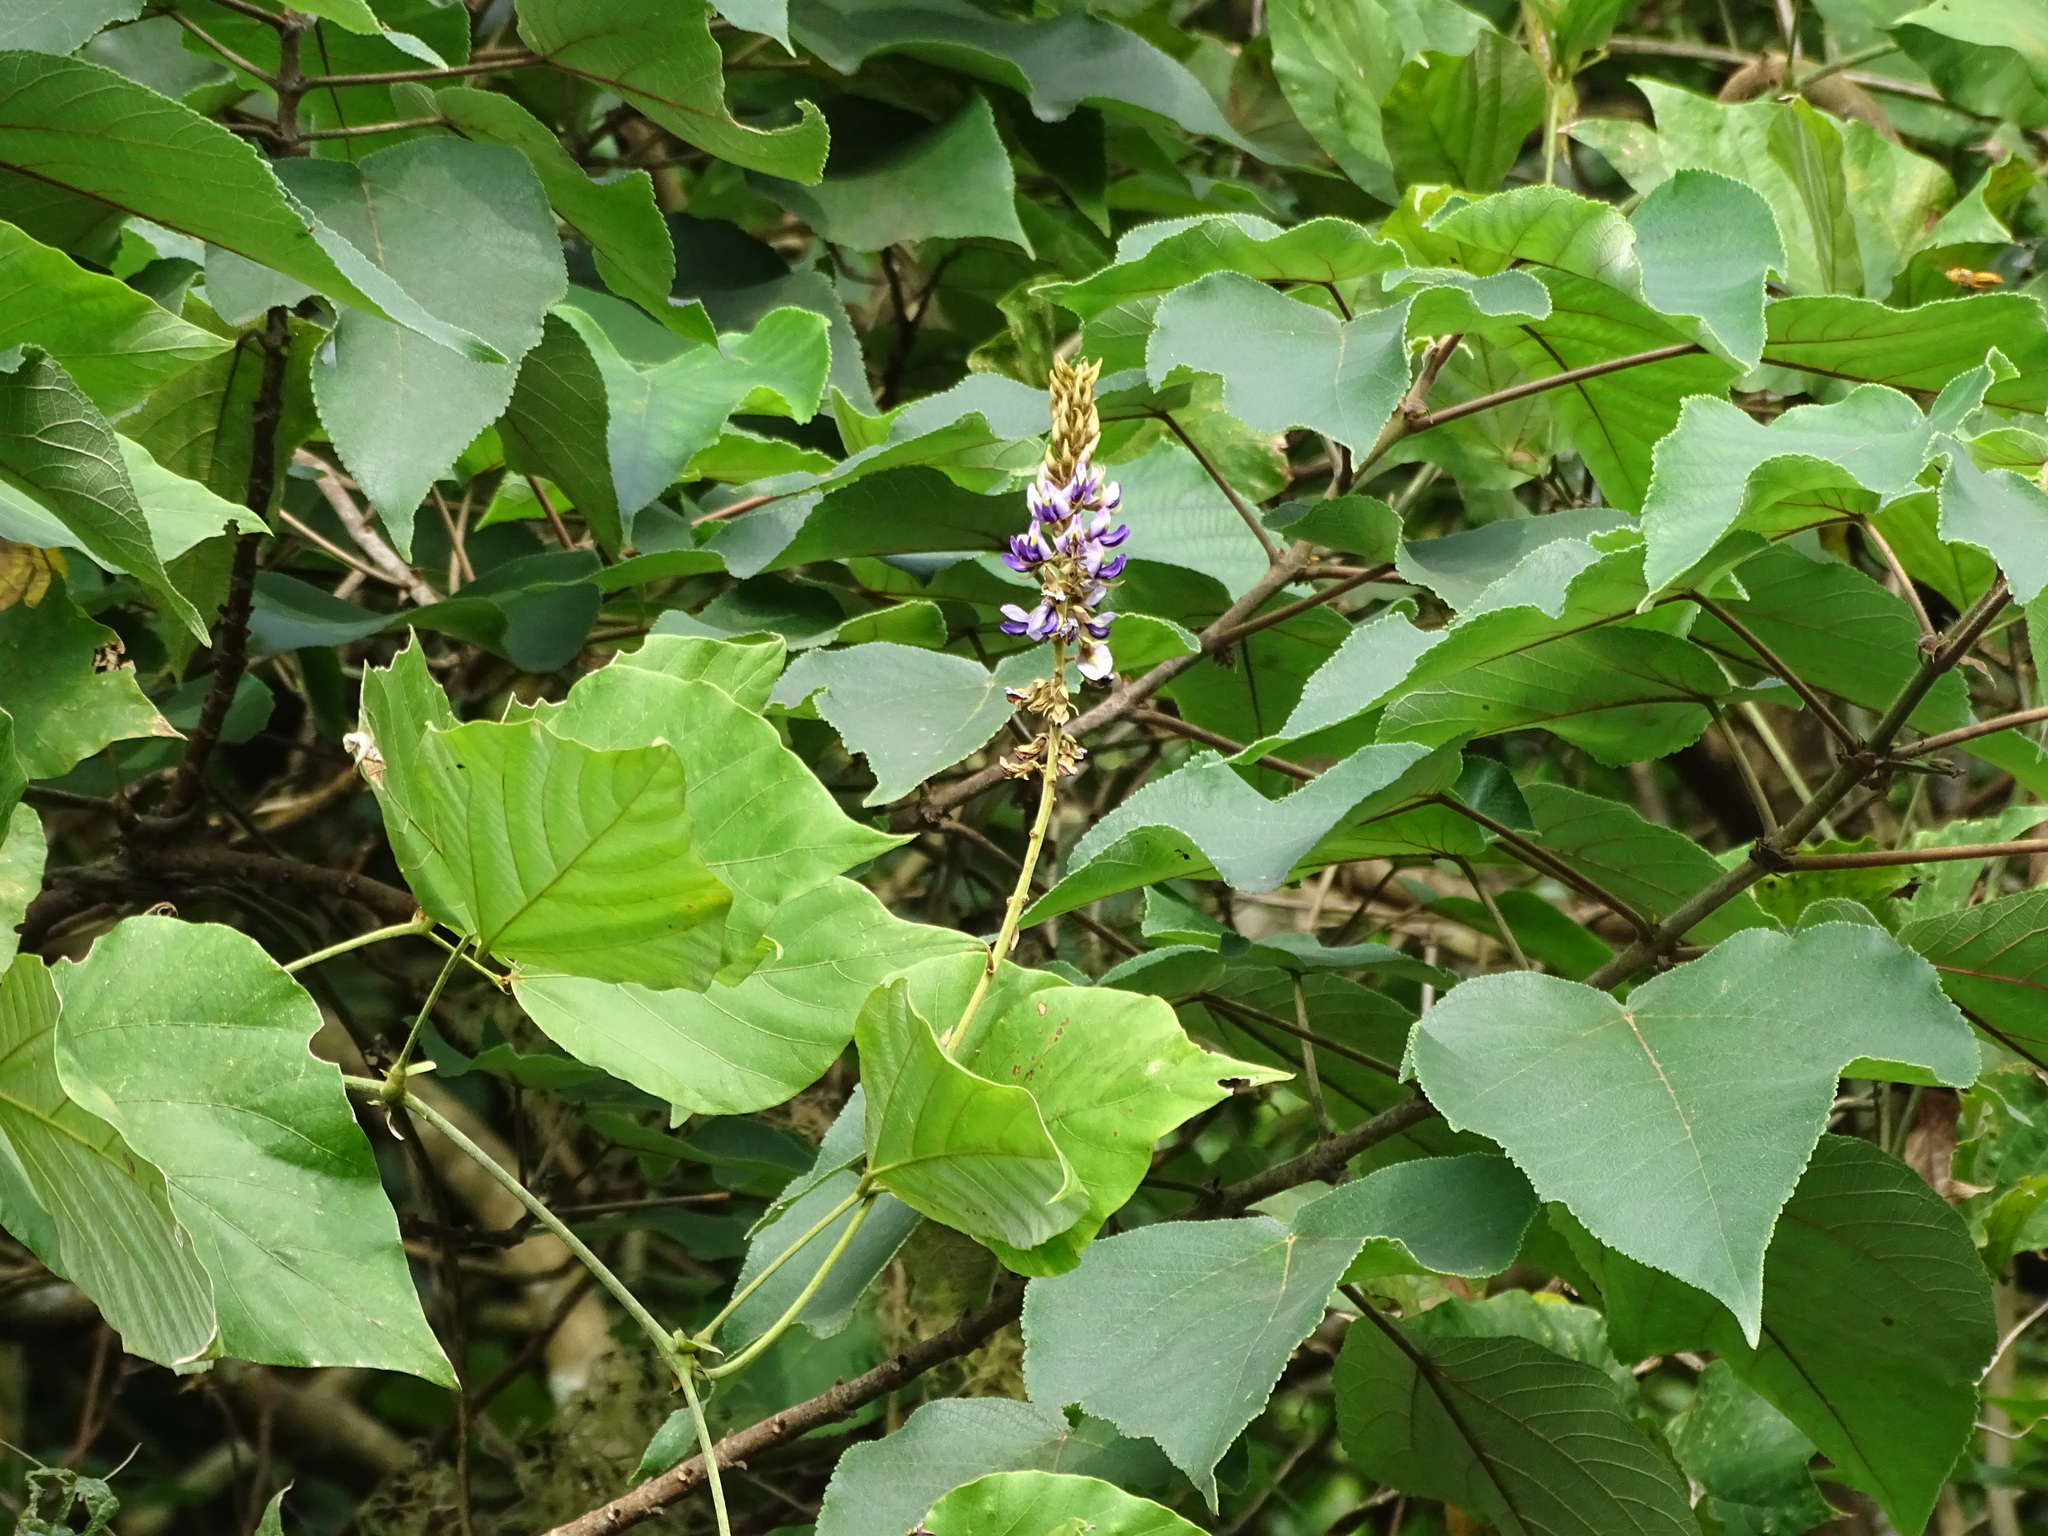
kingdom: Plantae
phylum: Tracheophyta
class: Magnoliopsida
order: Fabales
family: Fabaceae
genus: Pueraria
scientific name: Pueraria montana
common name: Kudzu
